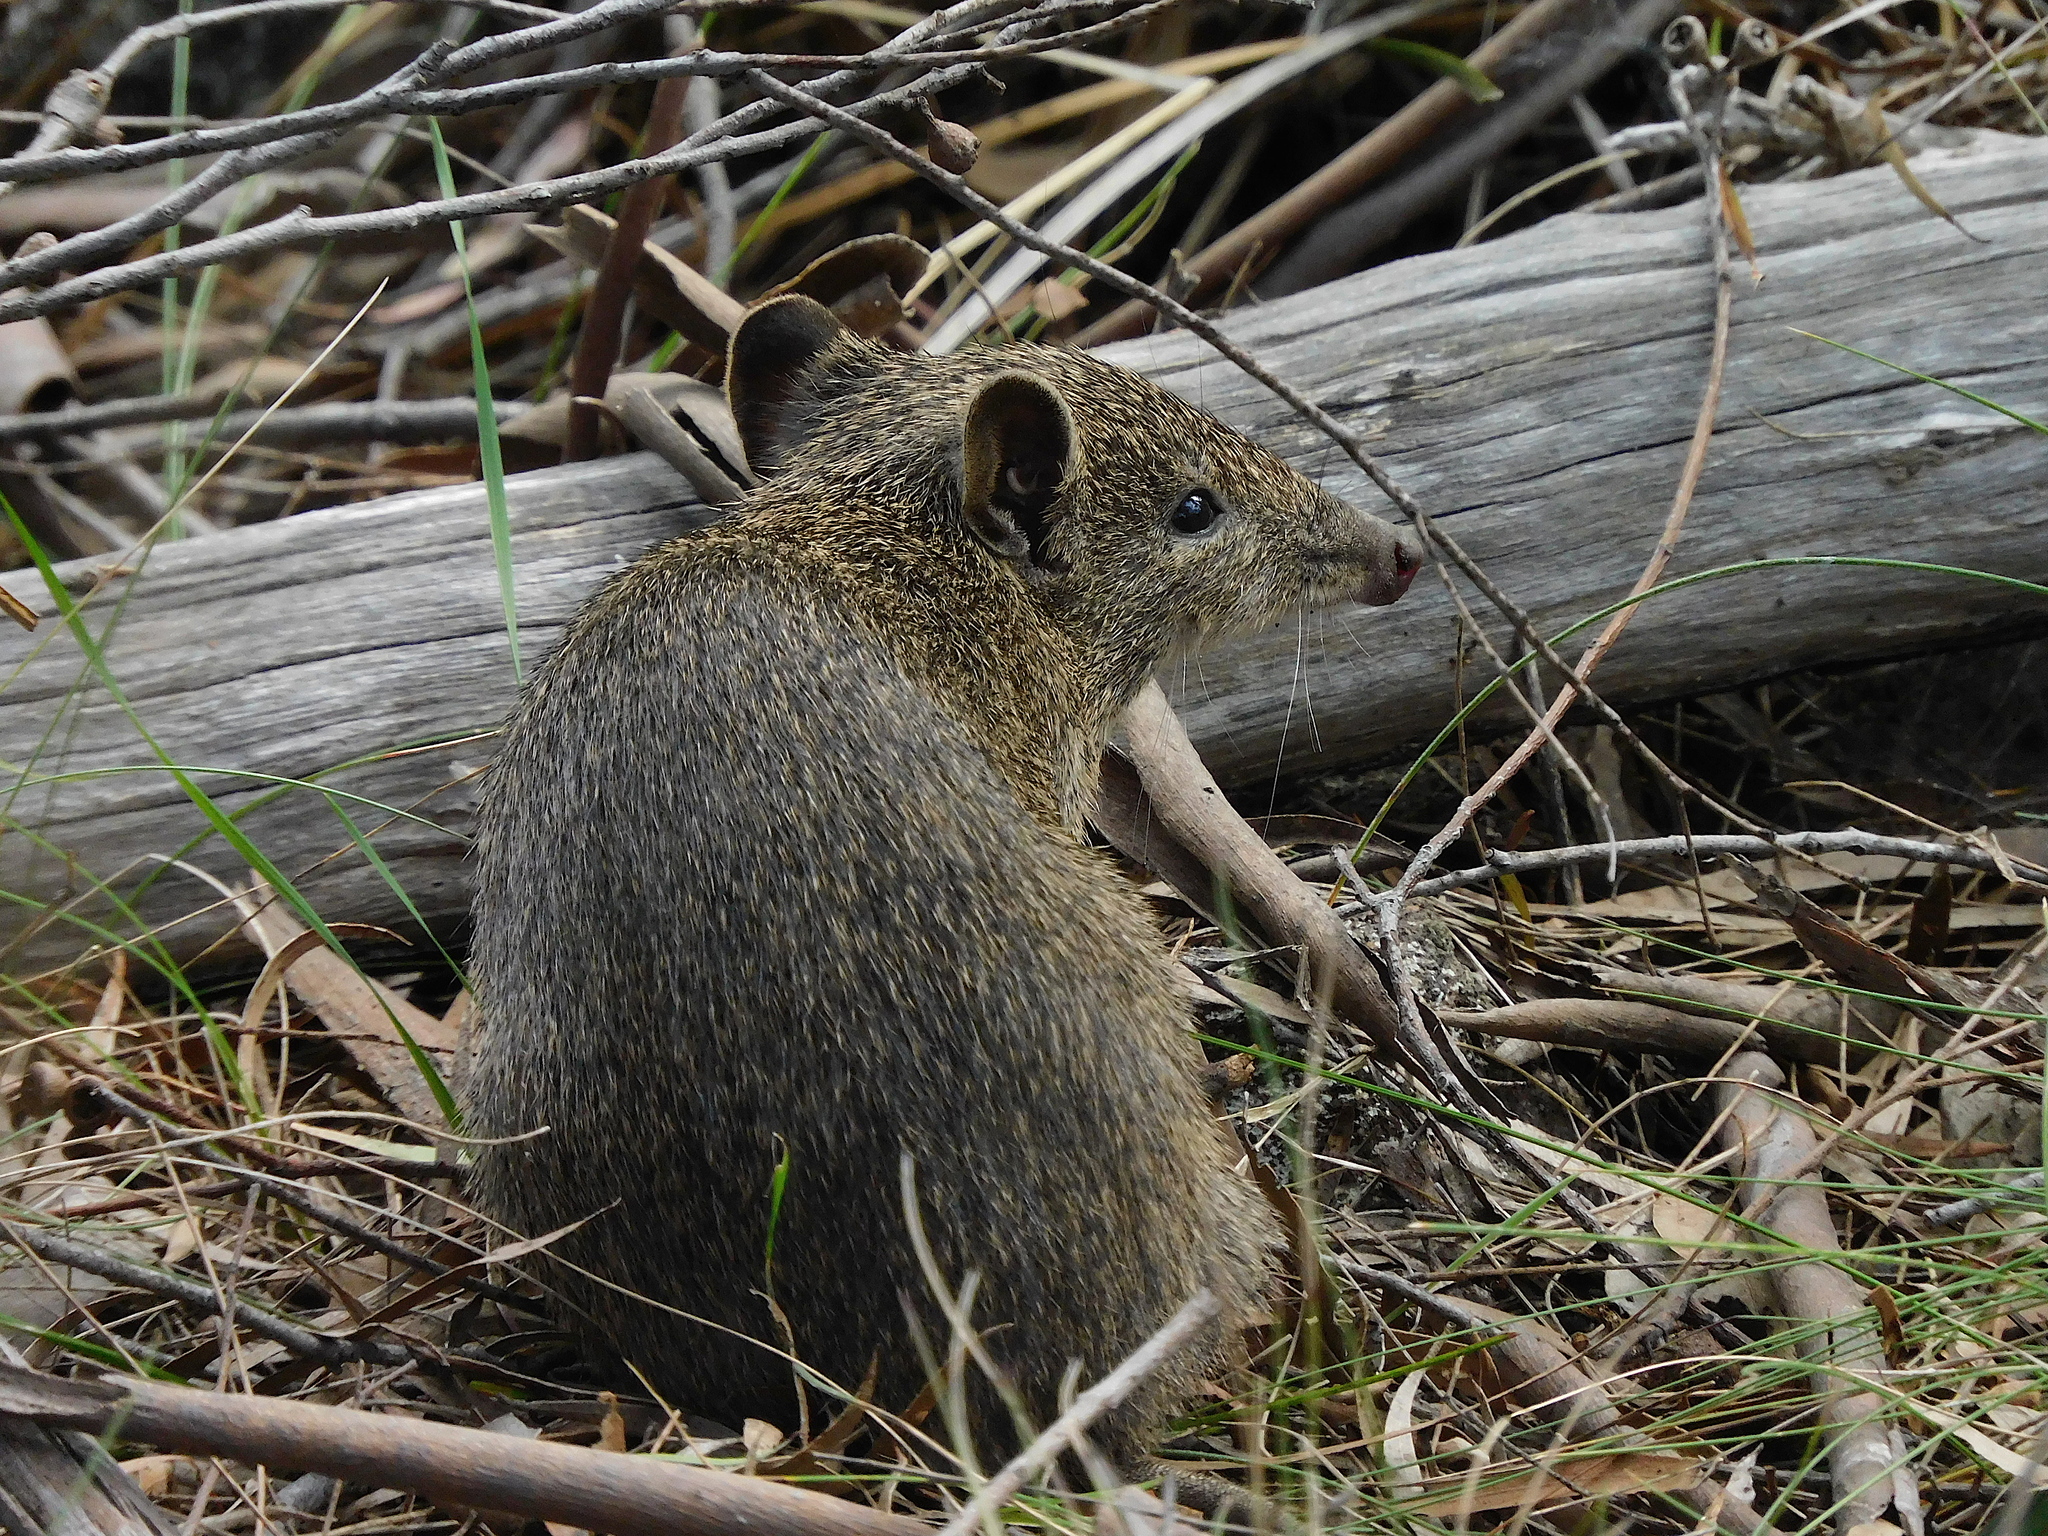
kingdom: Animalia
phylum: Chordata
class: Mammalia
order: Peramelemorphia
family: Peramelidae
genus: Isoodon
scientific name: Isoodon obesulus
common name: Southern brown bandicoot
